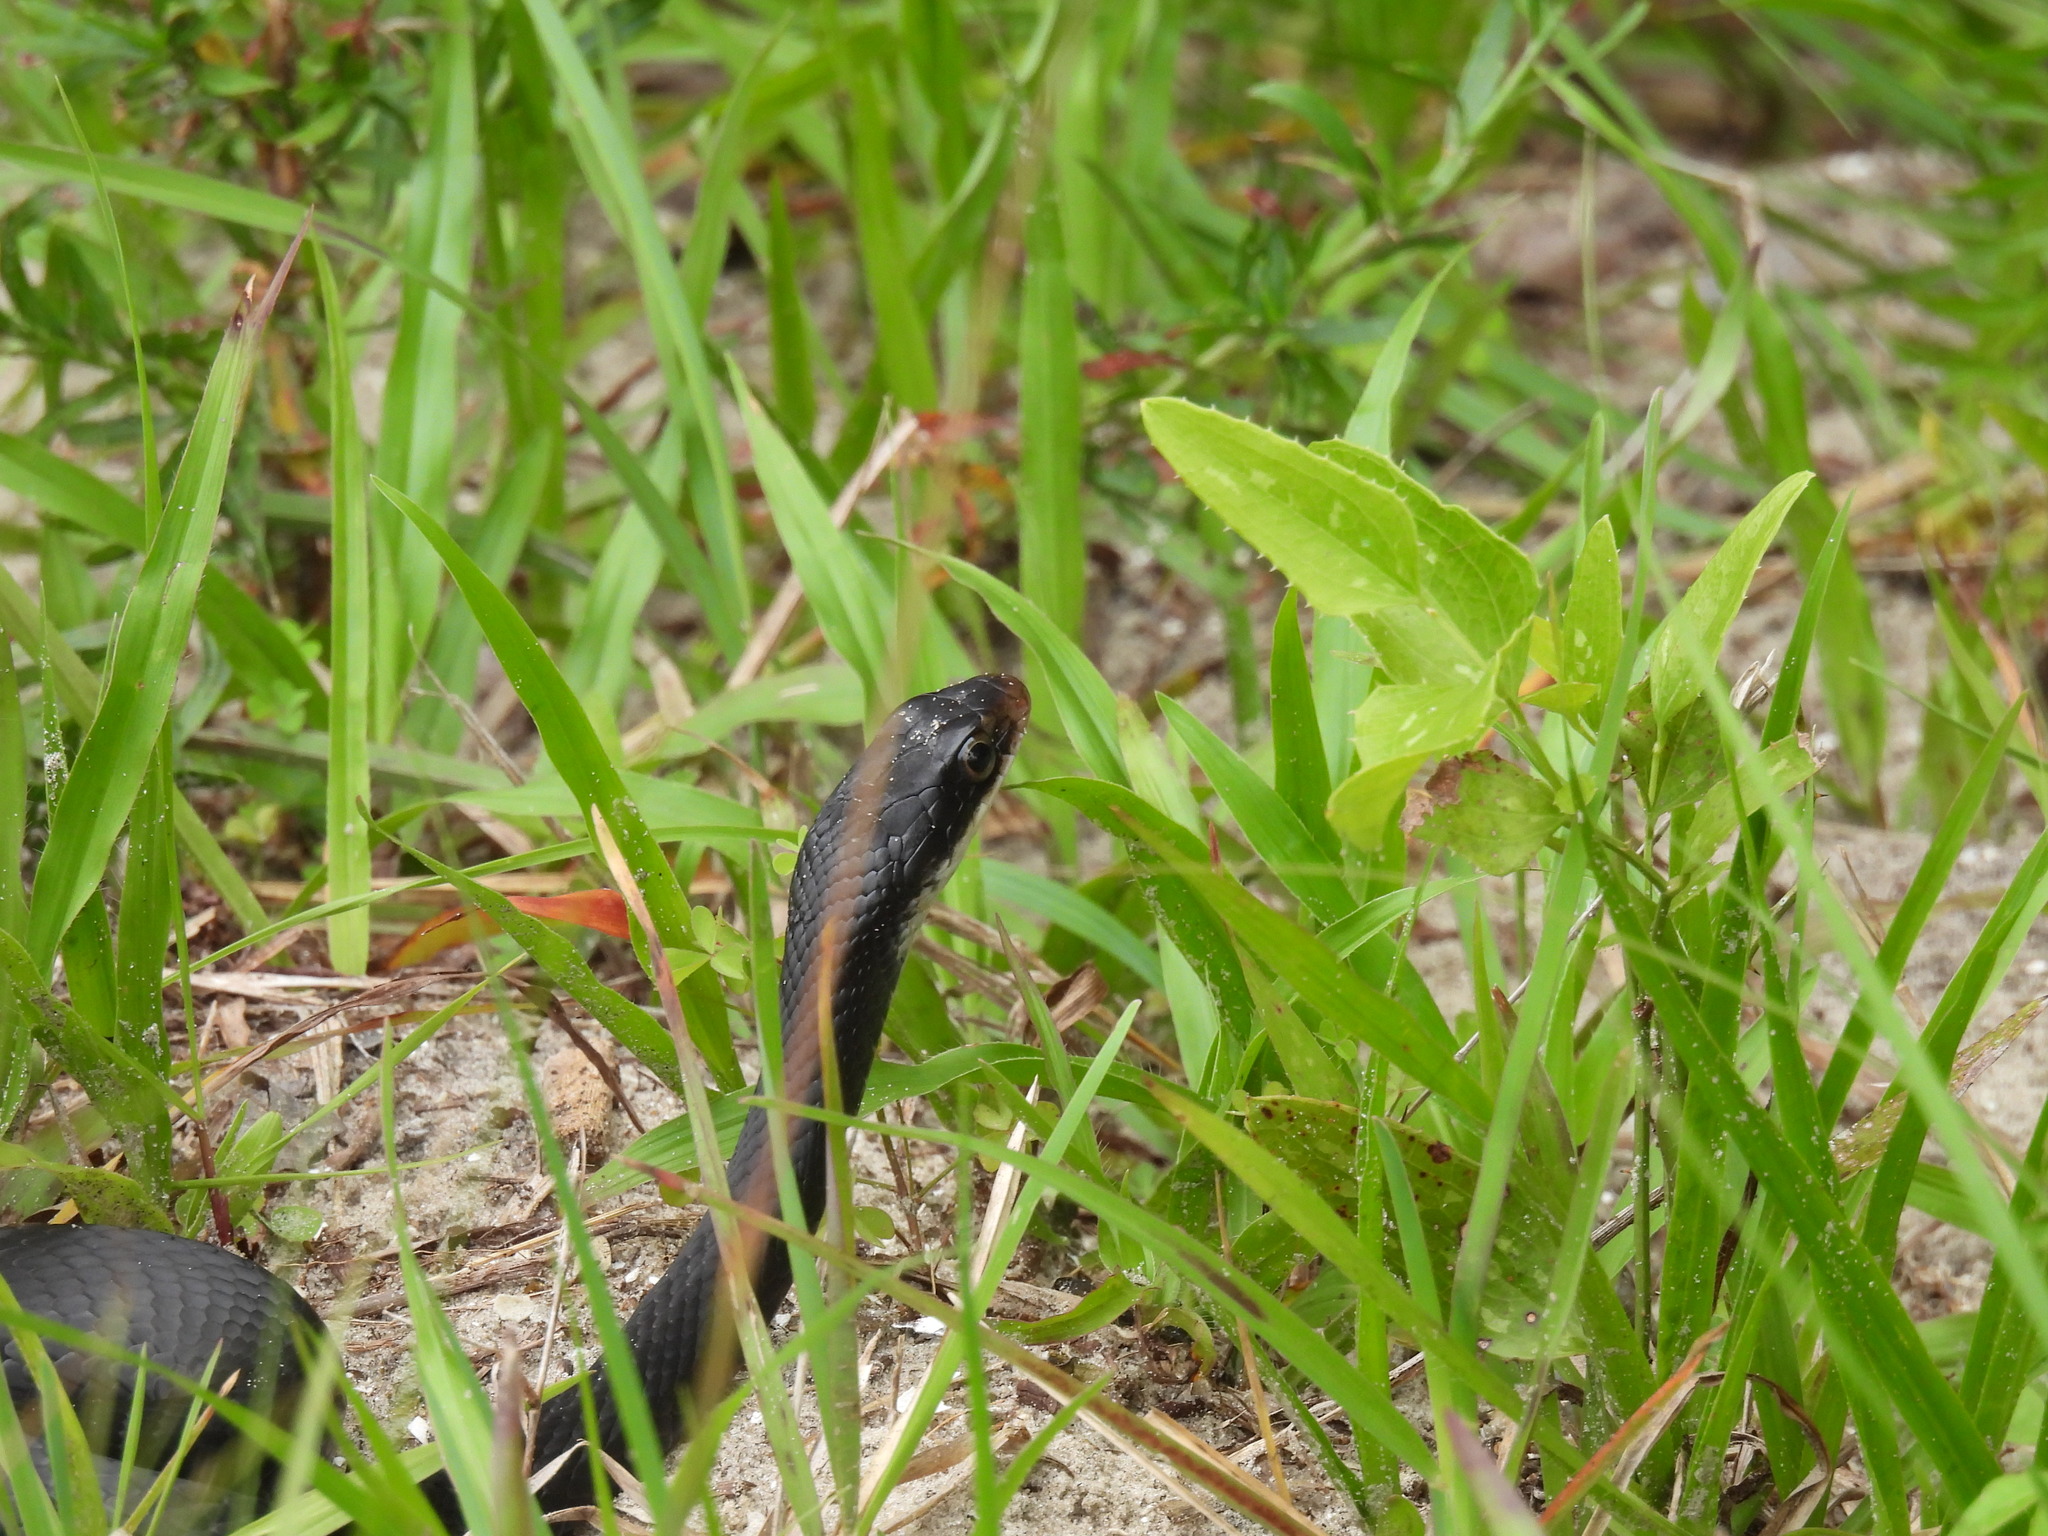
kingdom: Animalia
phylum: Chordata
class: Squamata
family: Colubridae
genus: Coluber
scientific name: Coluber constrictor
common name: Eastern racer
